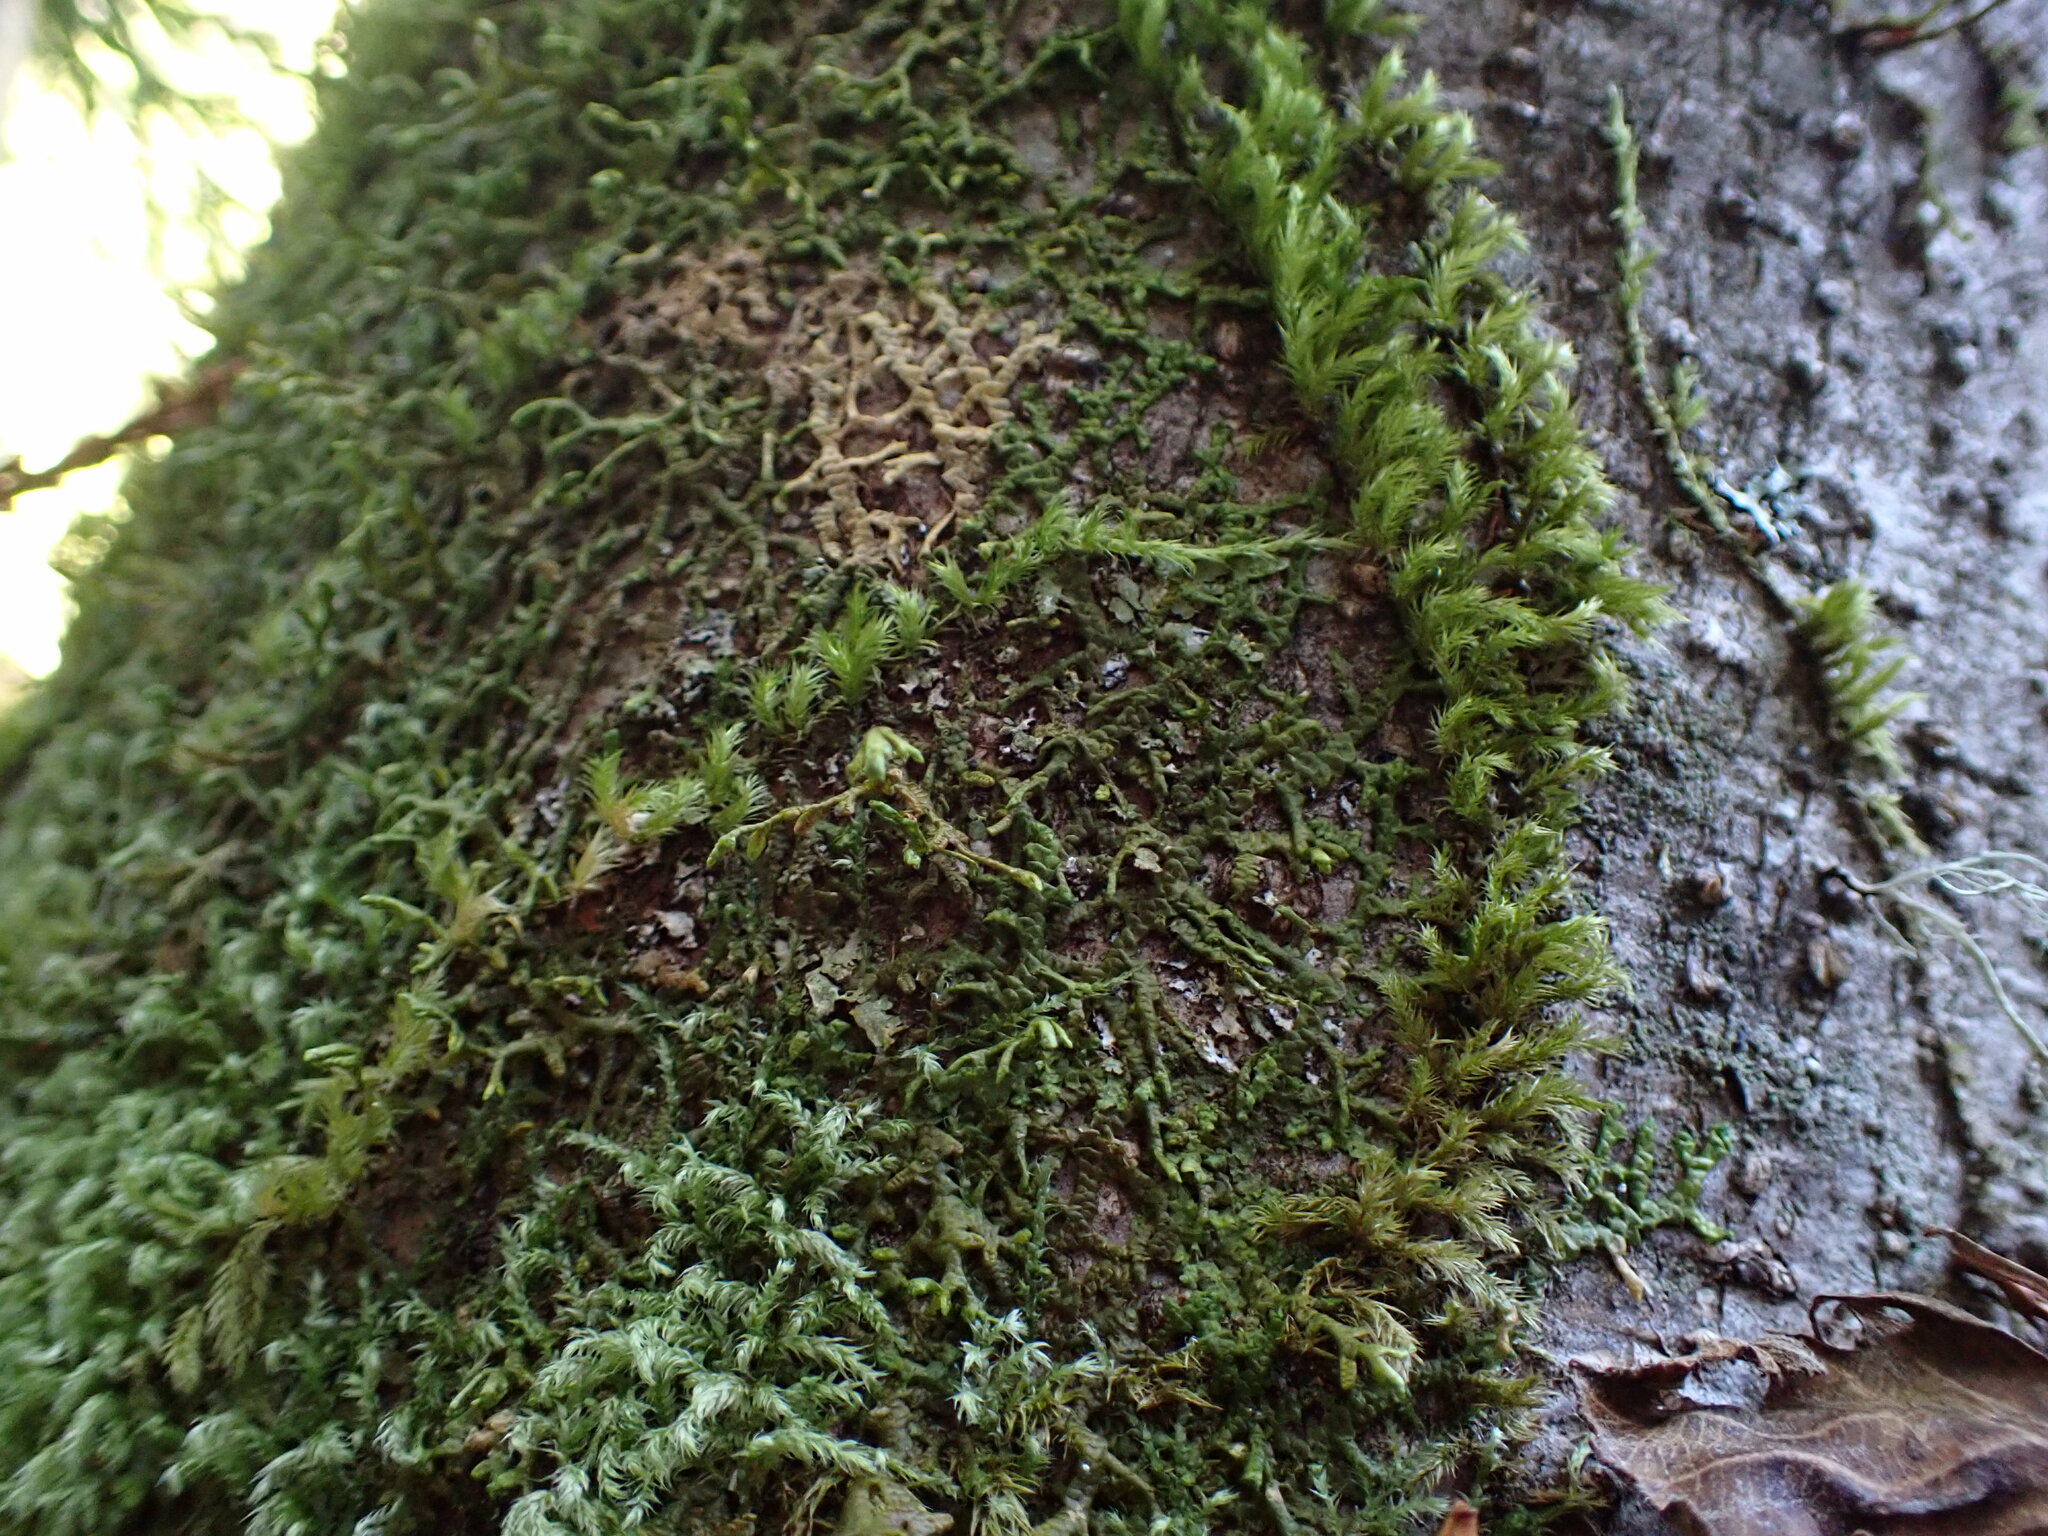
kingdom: Plantae
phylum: Marchantiophyta
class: Jungermanniopsida
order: Porellales
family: Porellaceae
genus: Porella
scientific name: Porella navicularis
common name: Tree ruffle liverwort
